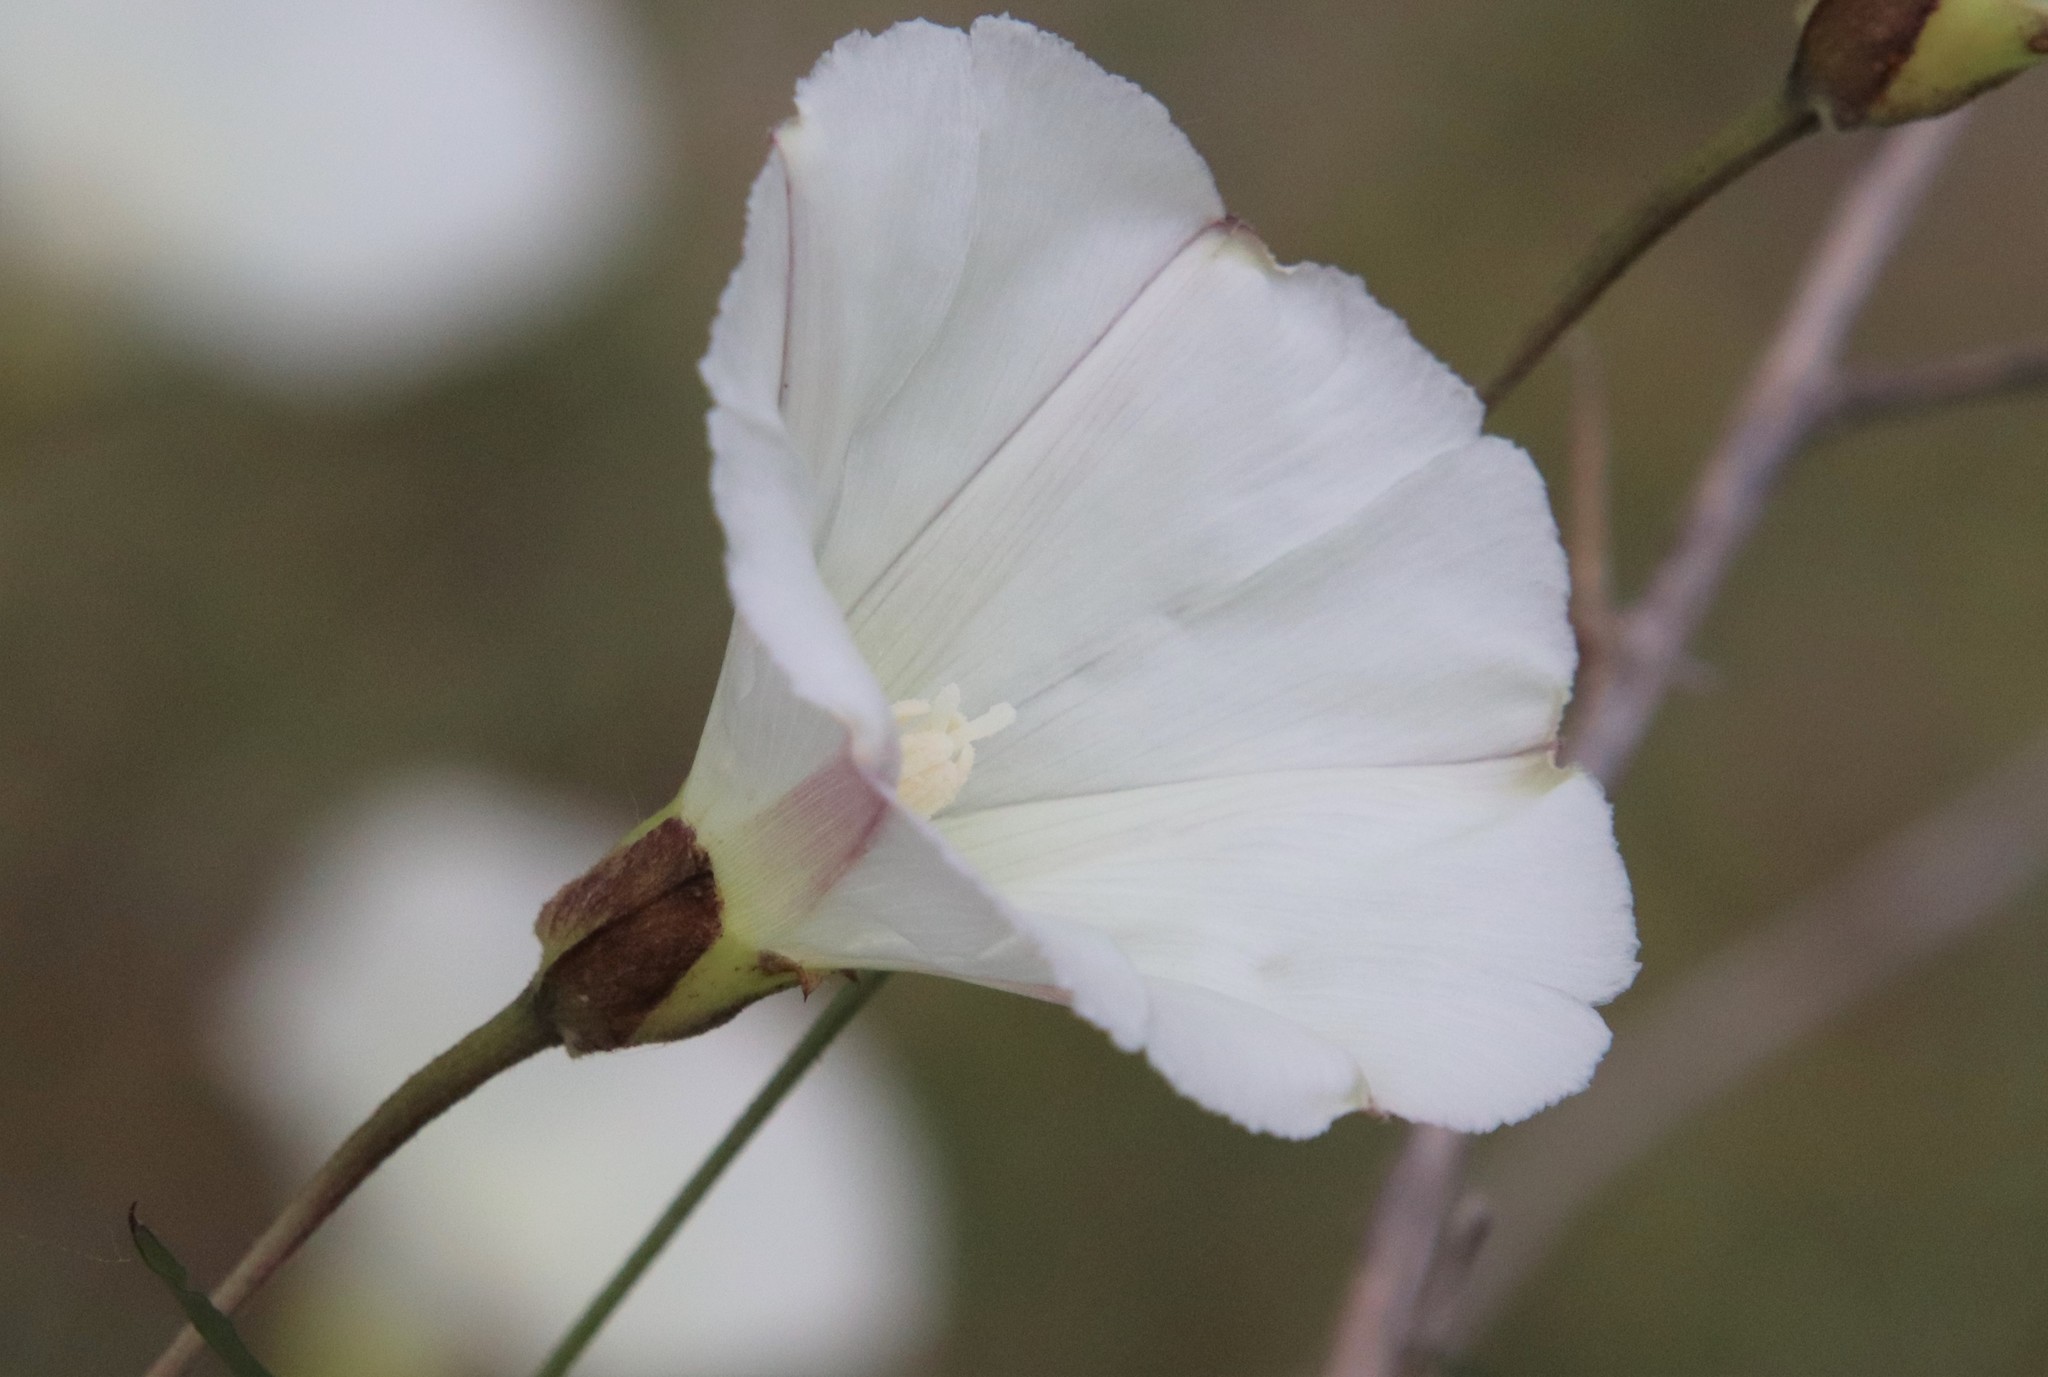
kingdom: Plantae
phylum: Tracheophyta
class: Magnoliopsida
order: Solanales
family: Convolvulaceae
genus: Calystegia
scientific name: Calystegia macrostegia
